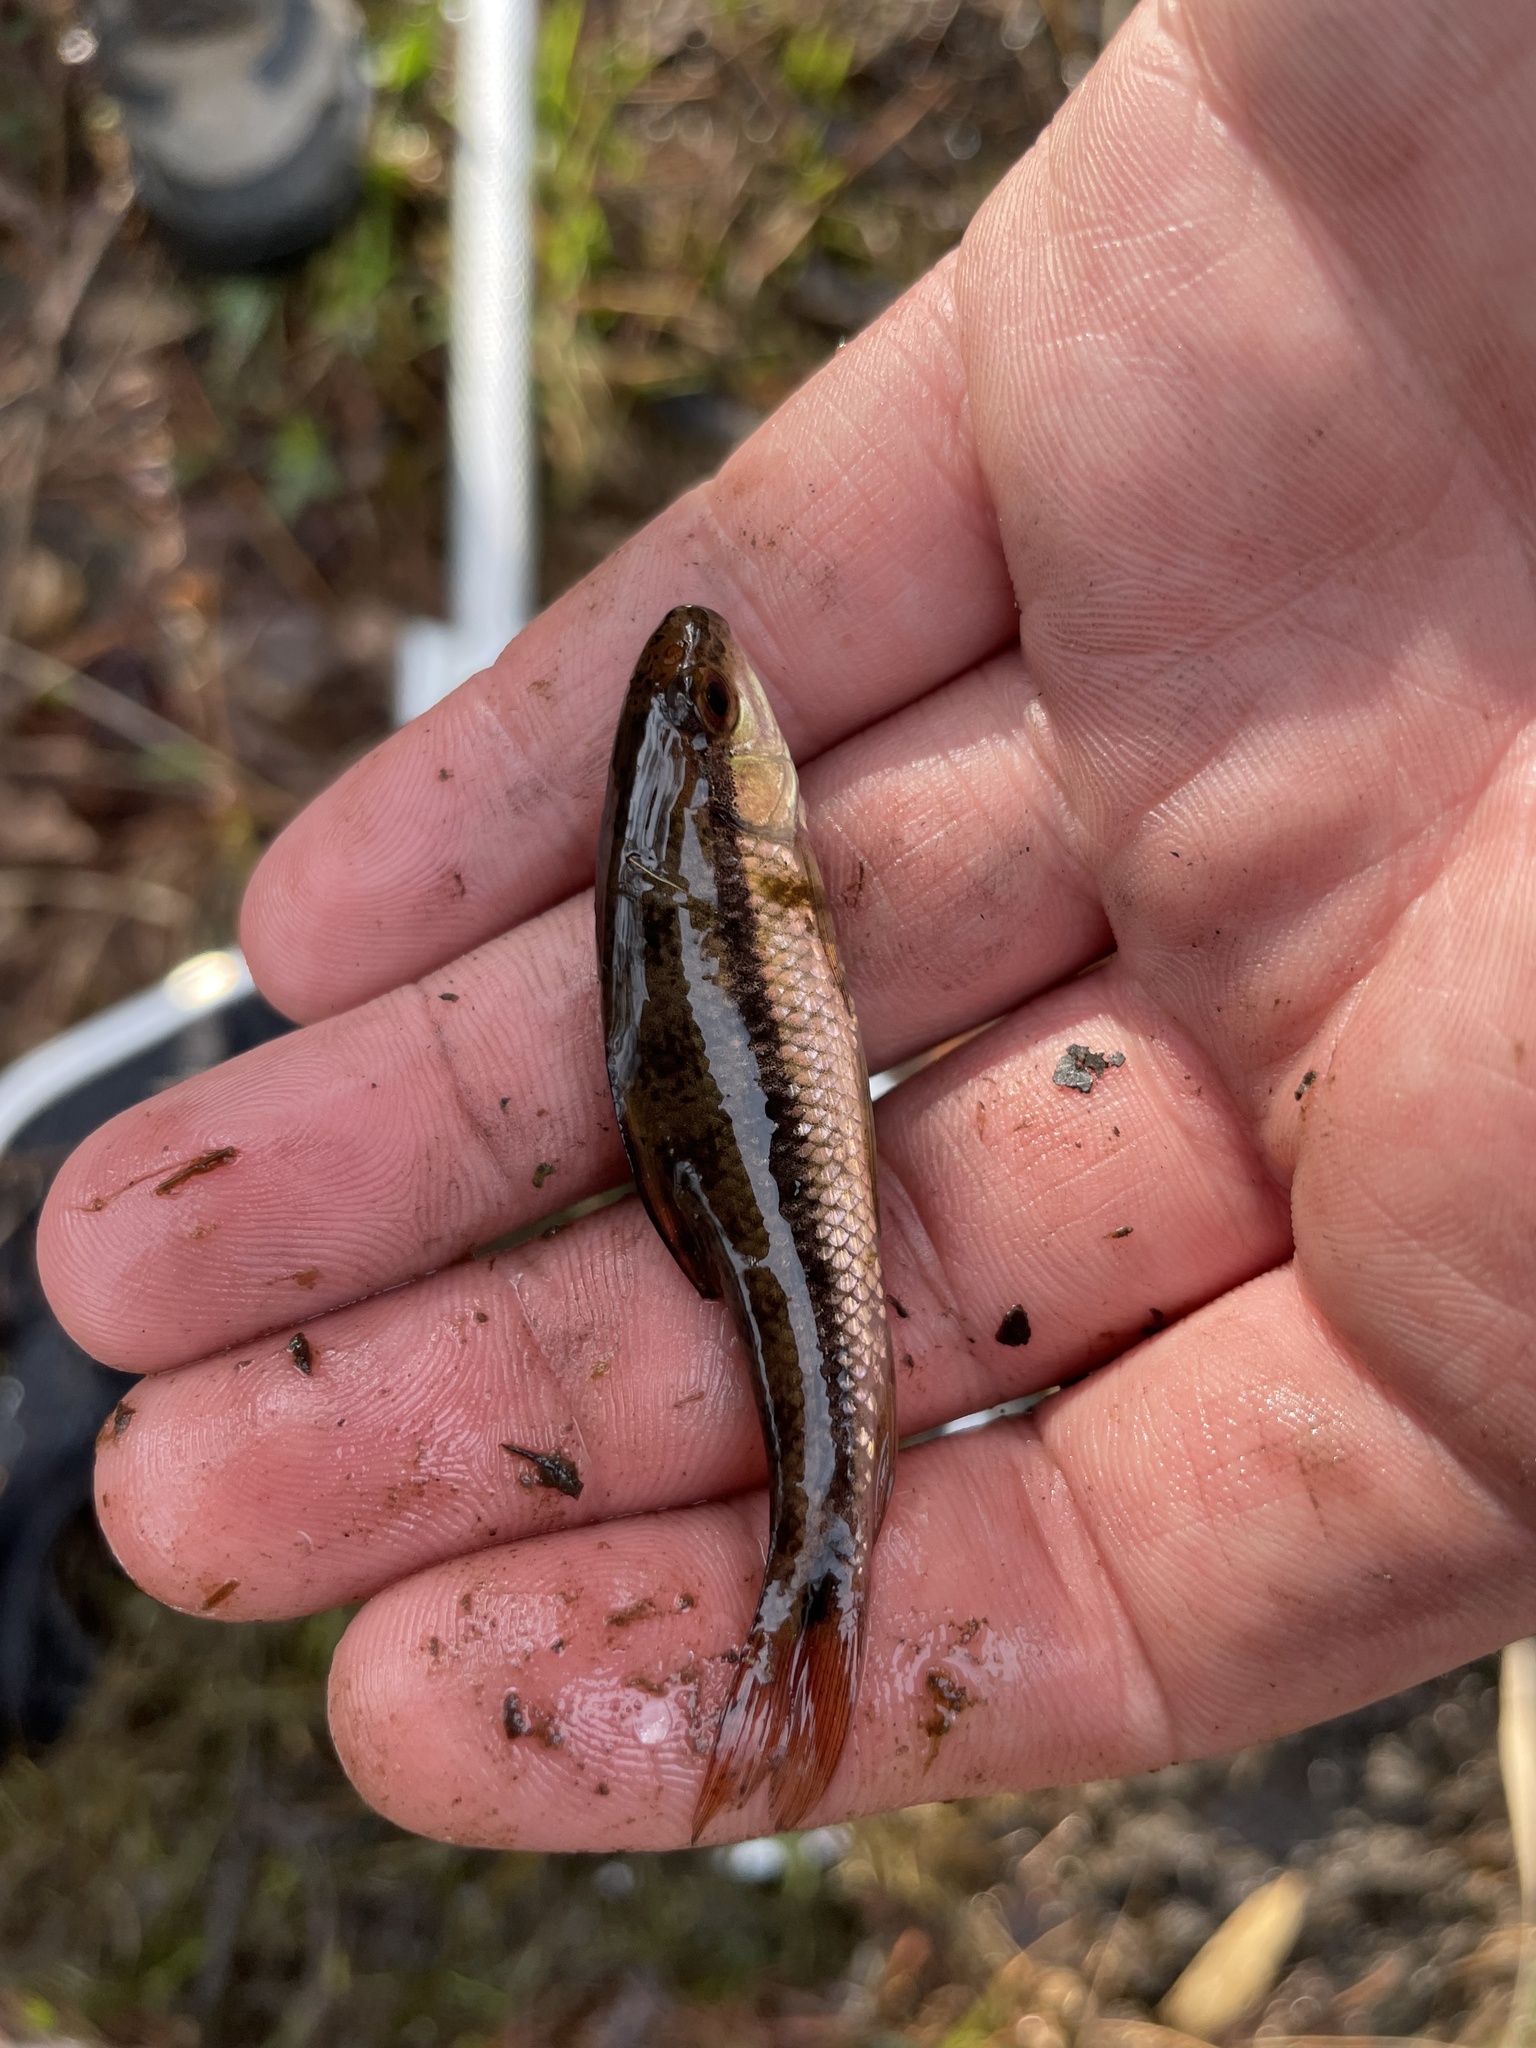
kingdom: Animalia
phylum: Chordata
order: Cypriniformes
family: Catostomidae
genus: Erimyzon
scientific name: Erimyzon oblongus
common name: Eastern creek chubsucker
